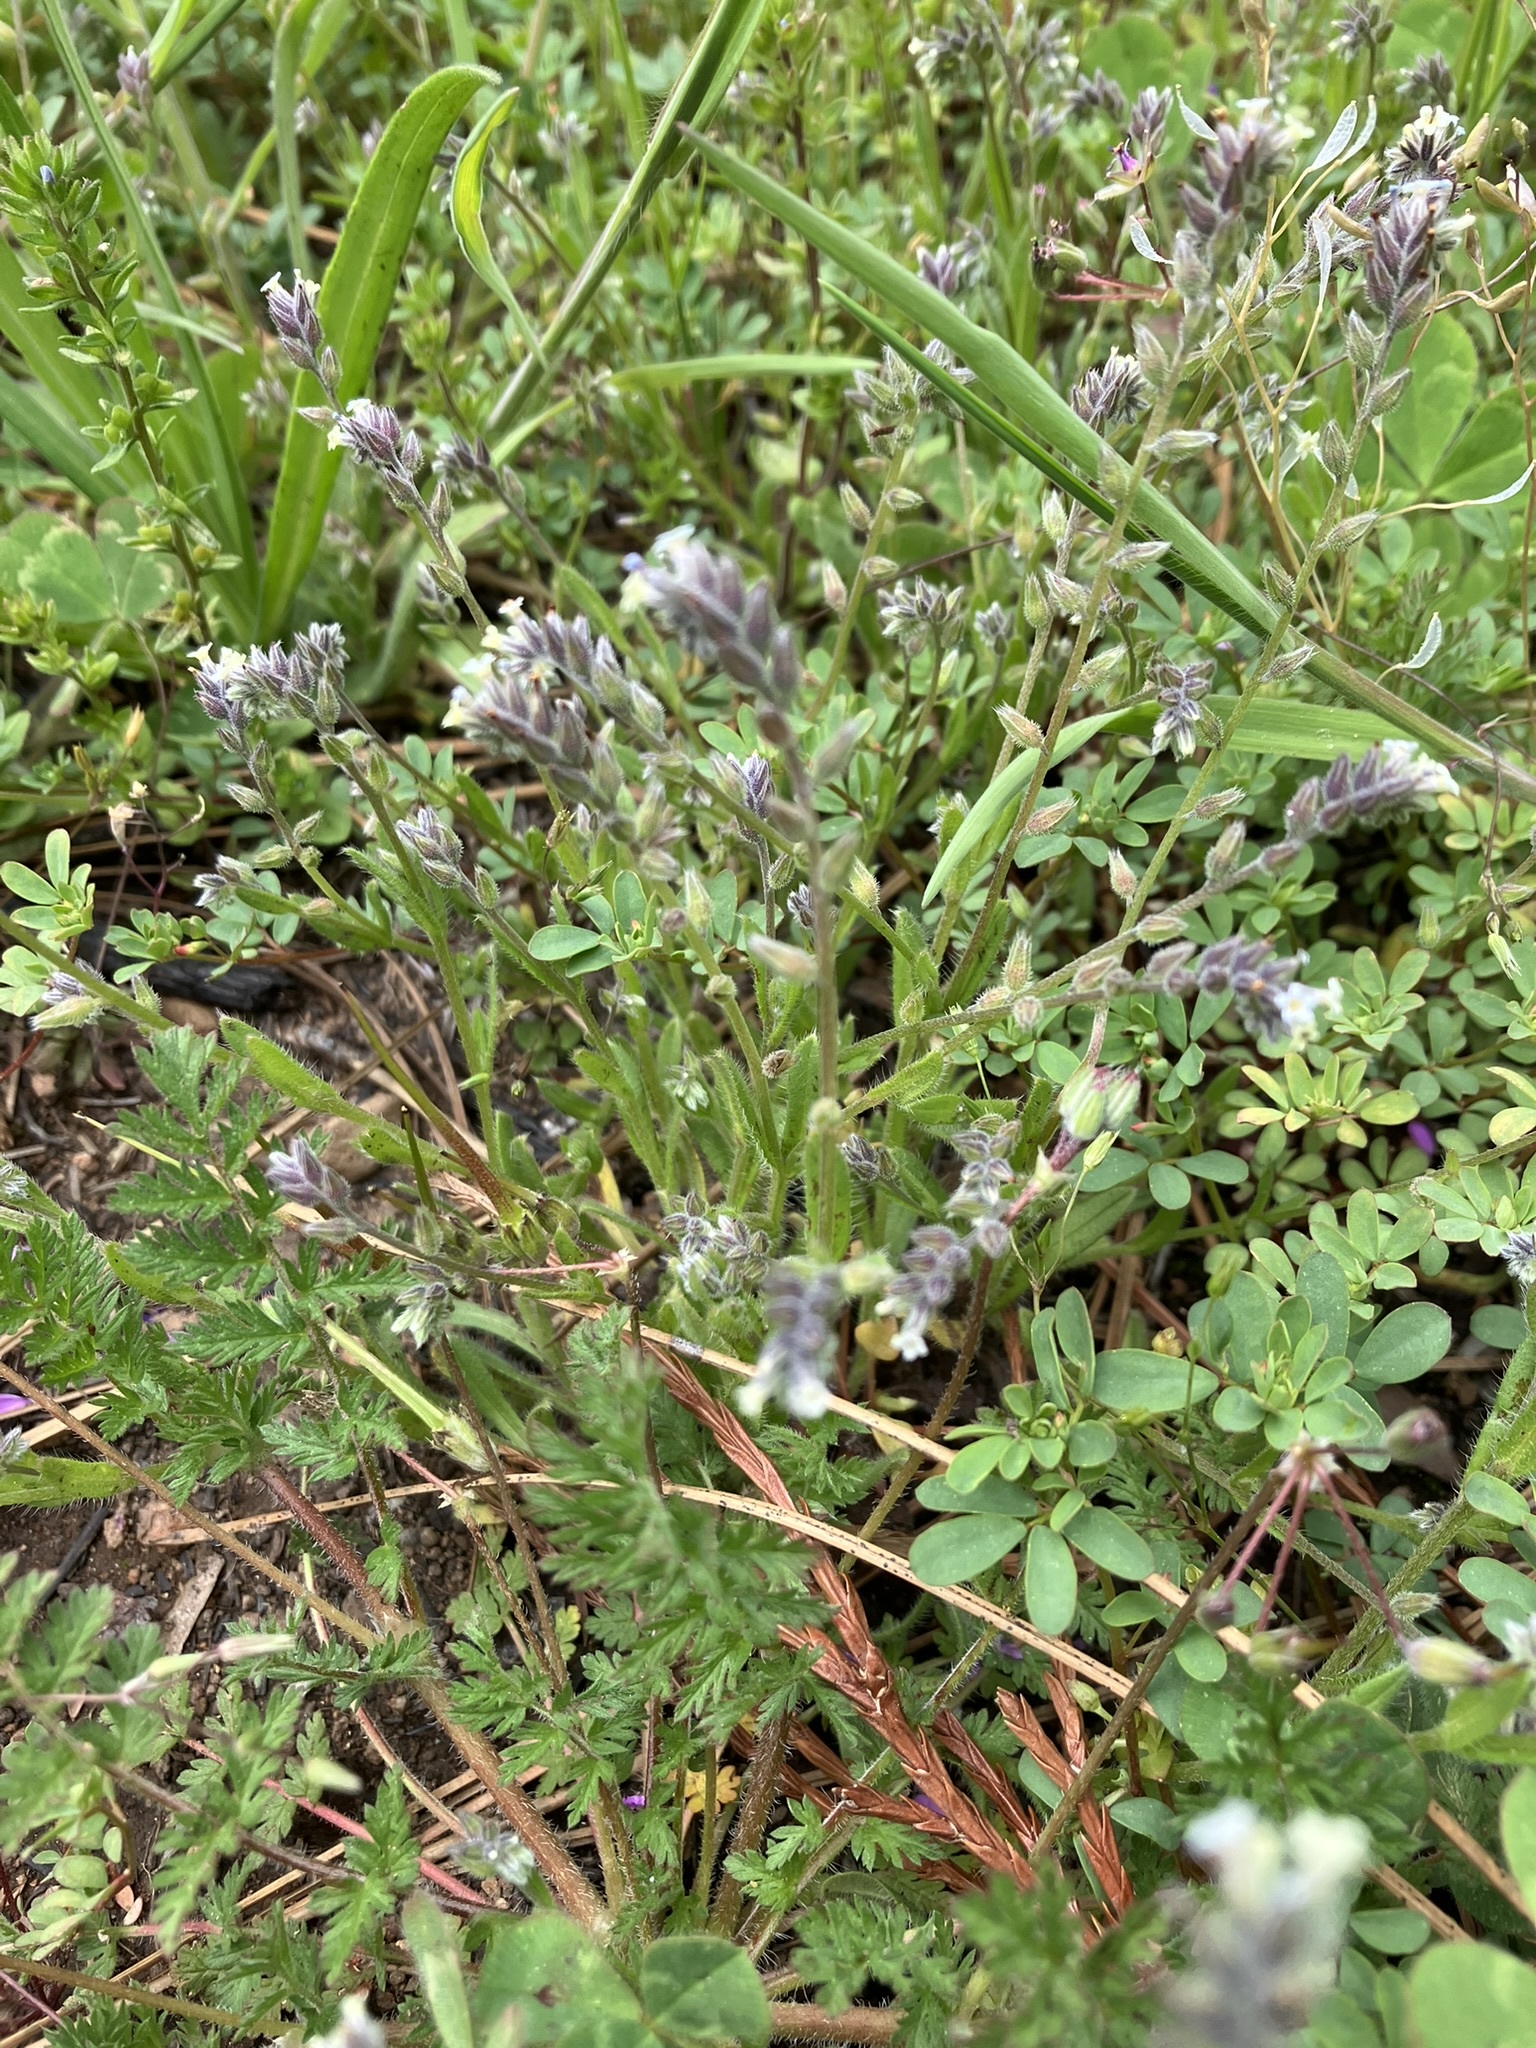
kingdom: Plantae
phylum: Tracheophyta
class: Magnoliopsida
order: Boraginales
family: Boraginaceae
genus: Myosotis
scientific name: Myosotis discolor
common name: Changing forget-me-not
